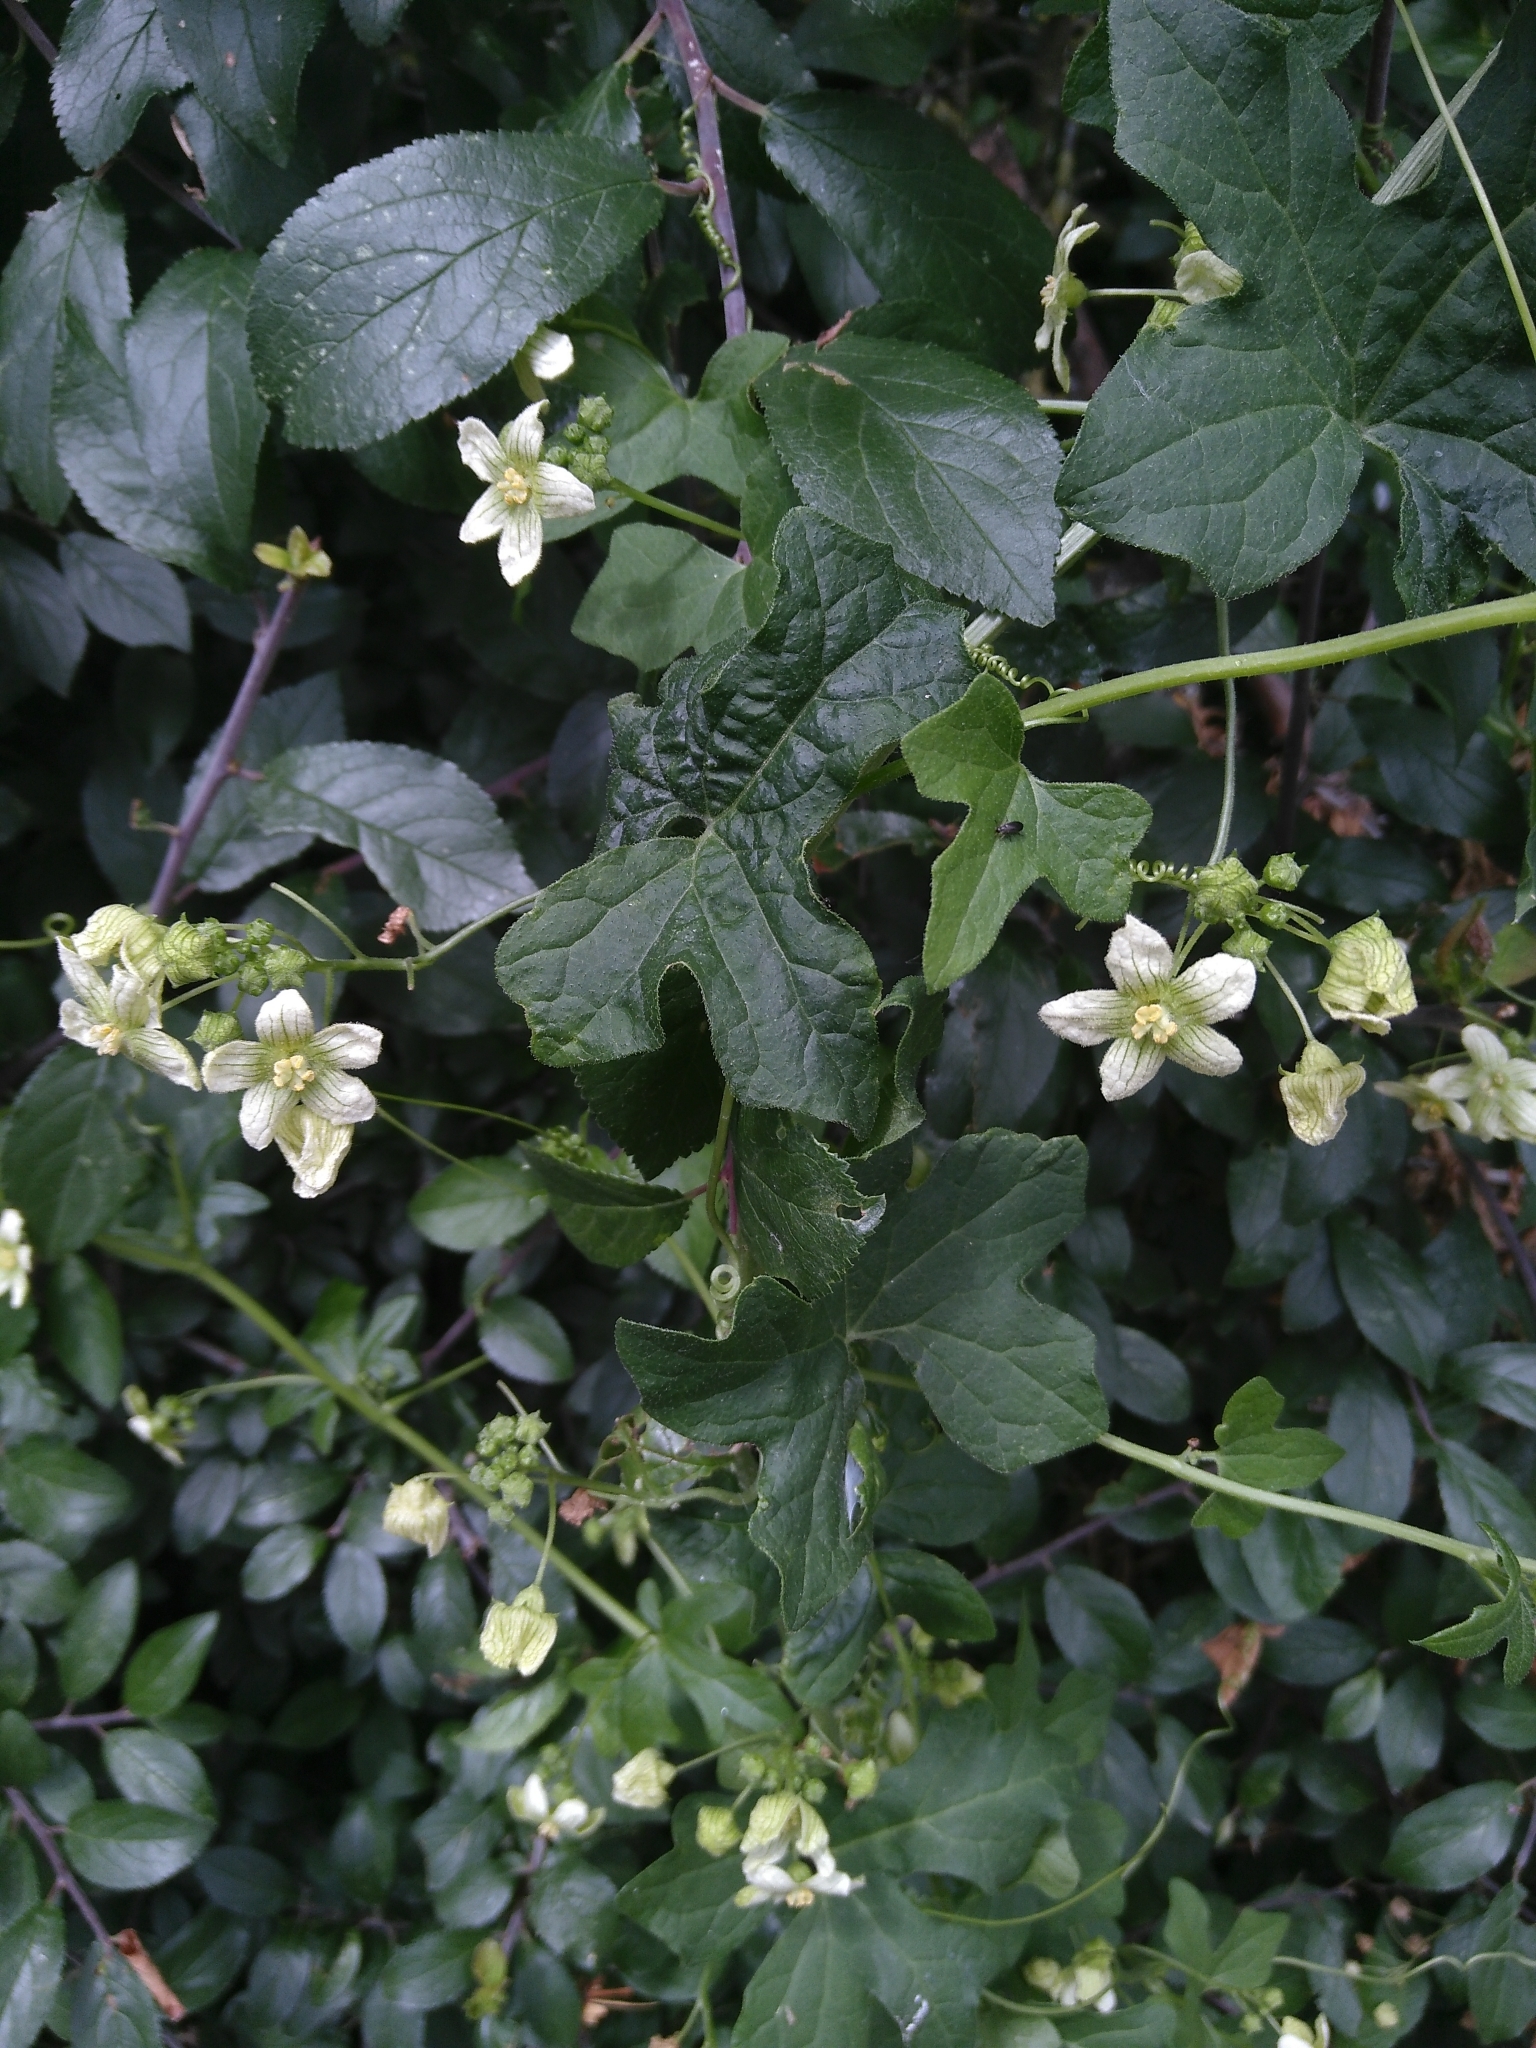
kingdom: Plantae
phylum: Tracheophyta
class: Magnoliopsida
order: Cucurbitales
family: Cucurbitaceae
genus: Bryonia
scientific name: Bryonia cretica
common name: Cretan bryony
